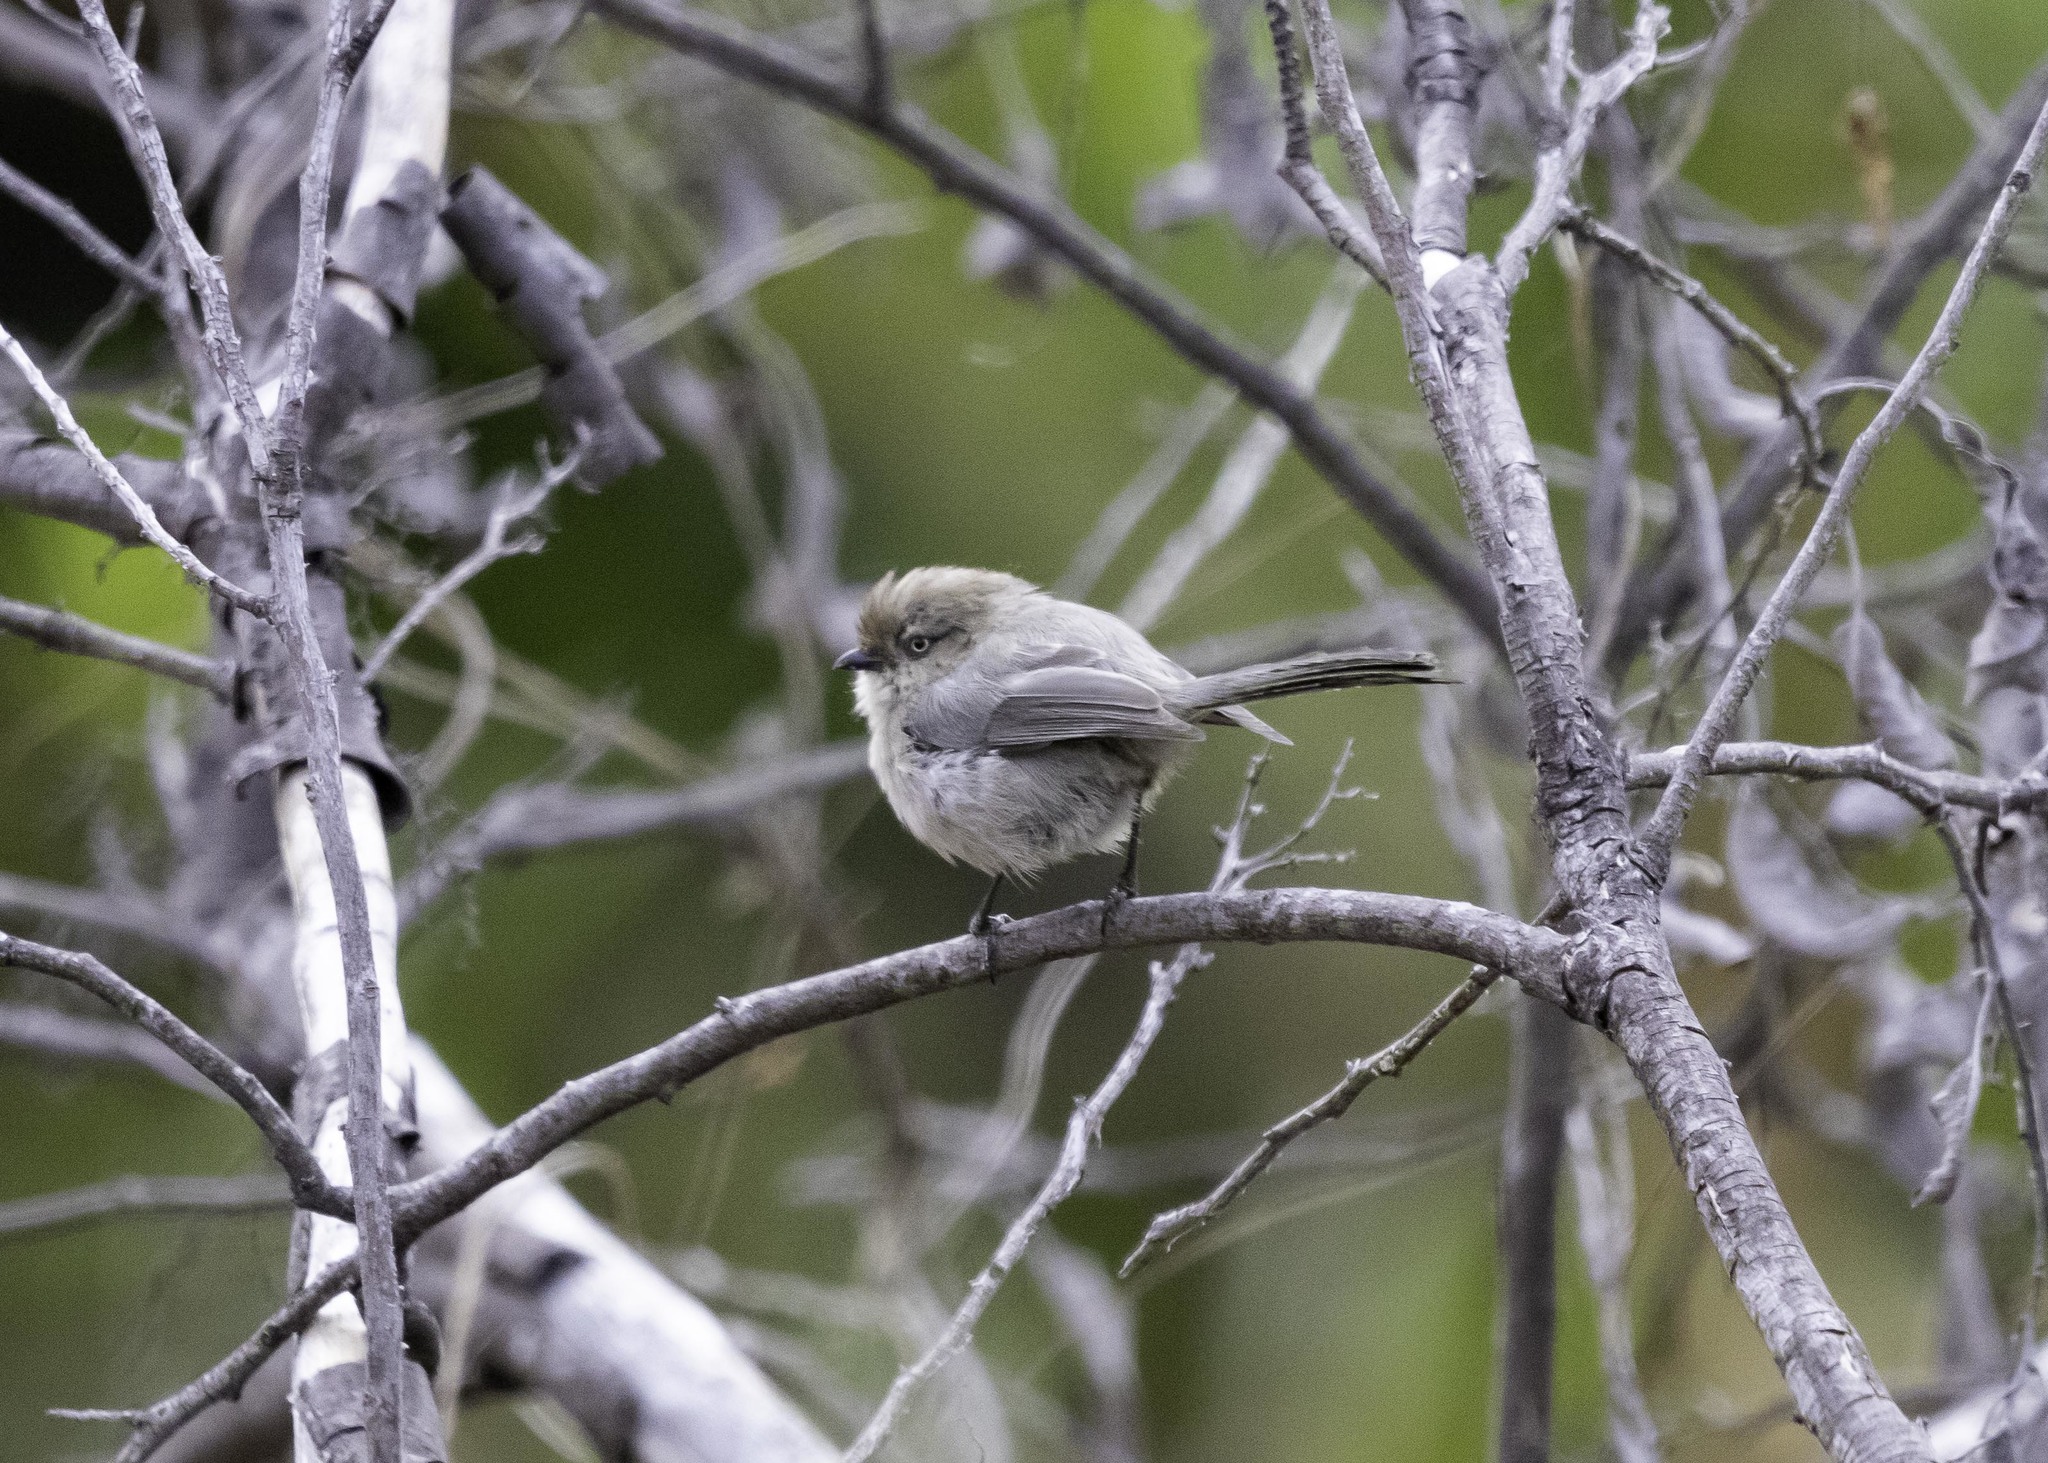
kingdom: Animalia
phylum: Chordata
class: Aves
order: Passeriformes
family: Aegithalidae
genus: Psaltriparus
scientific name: Psaltriparus minimus
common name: American bushtit
